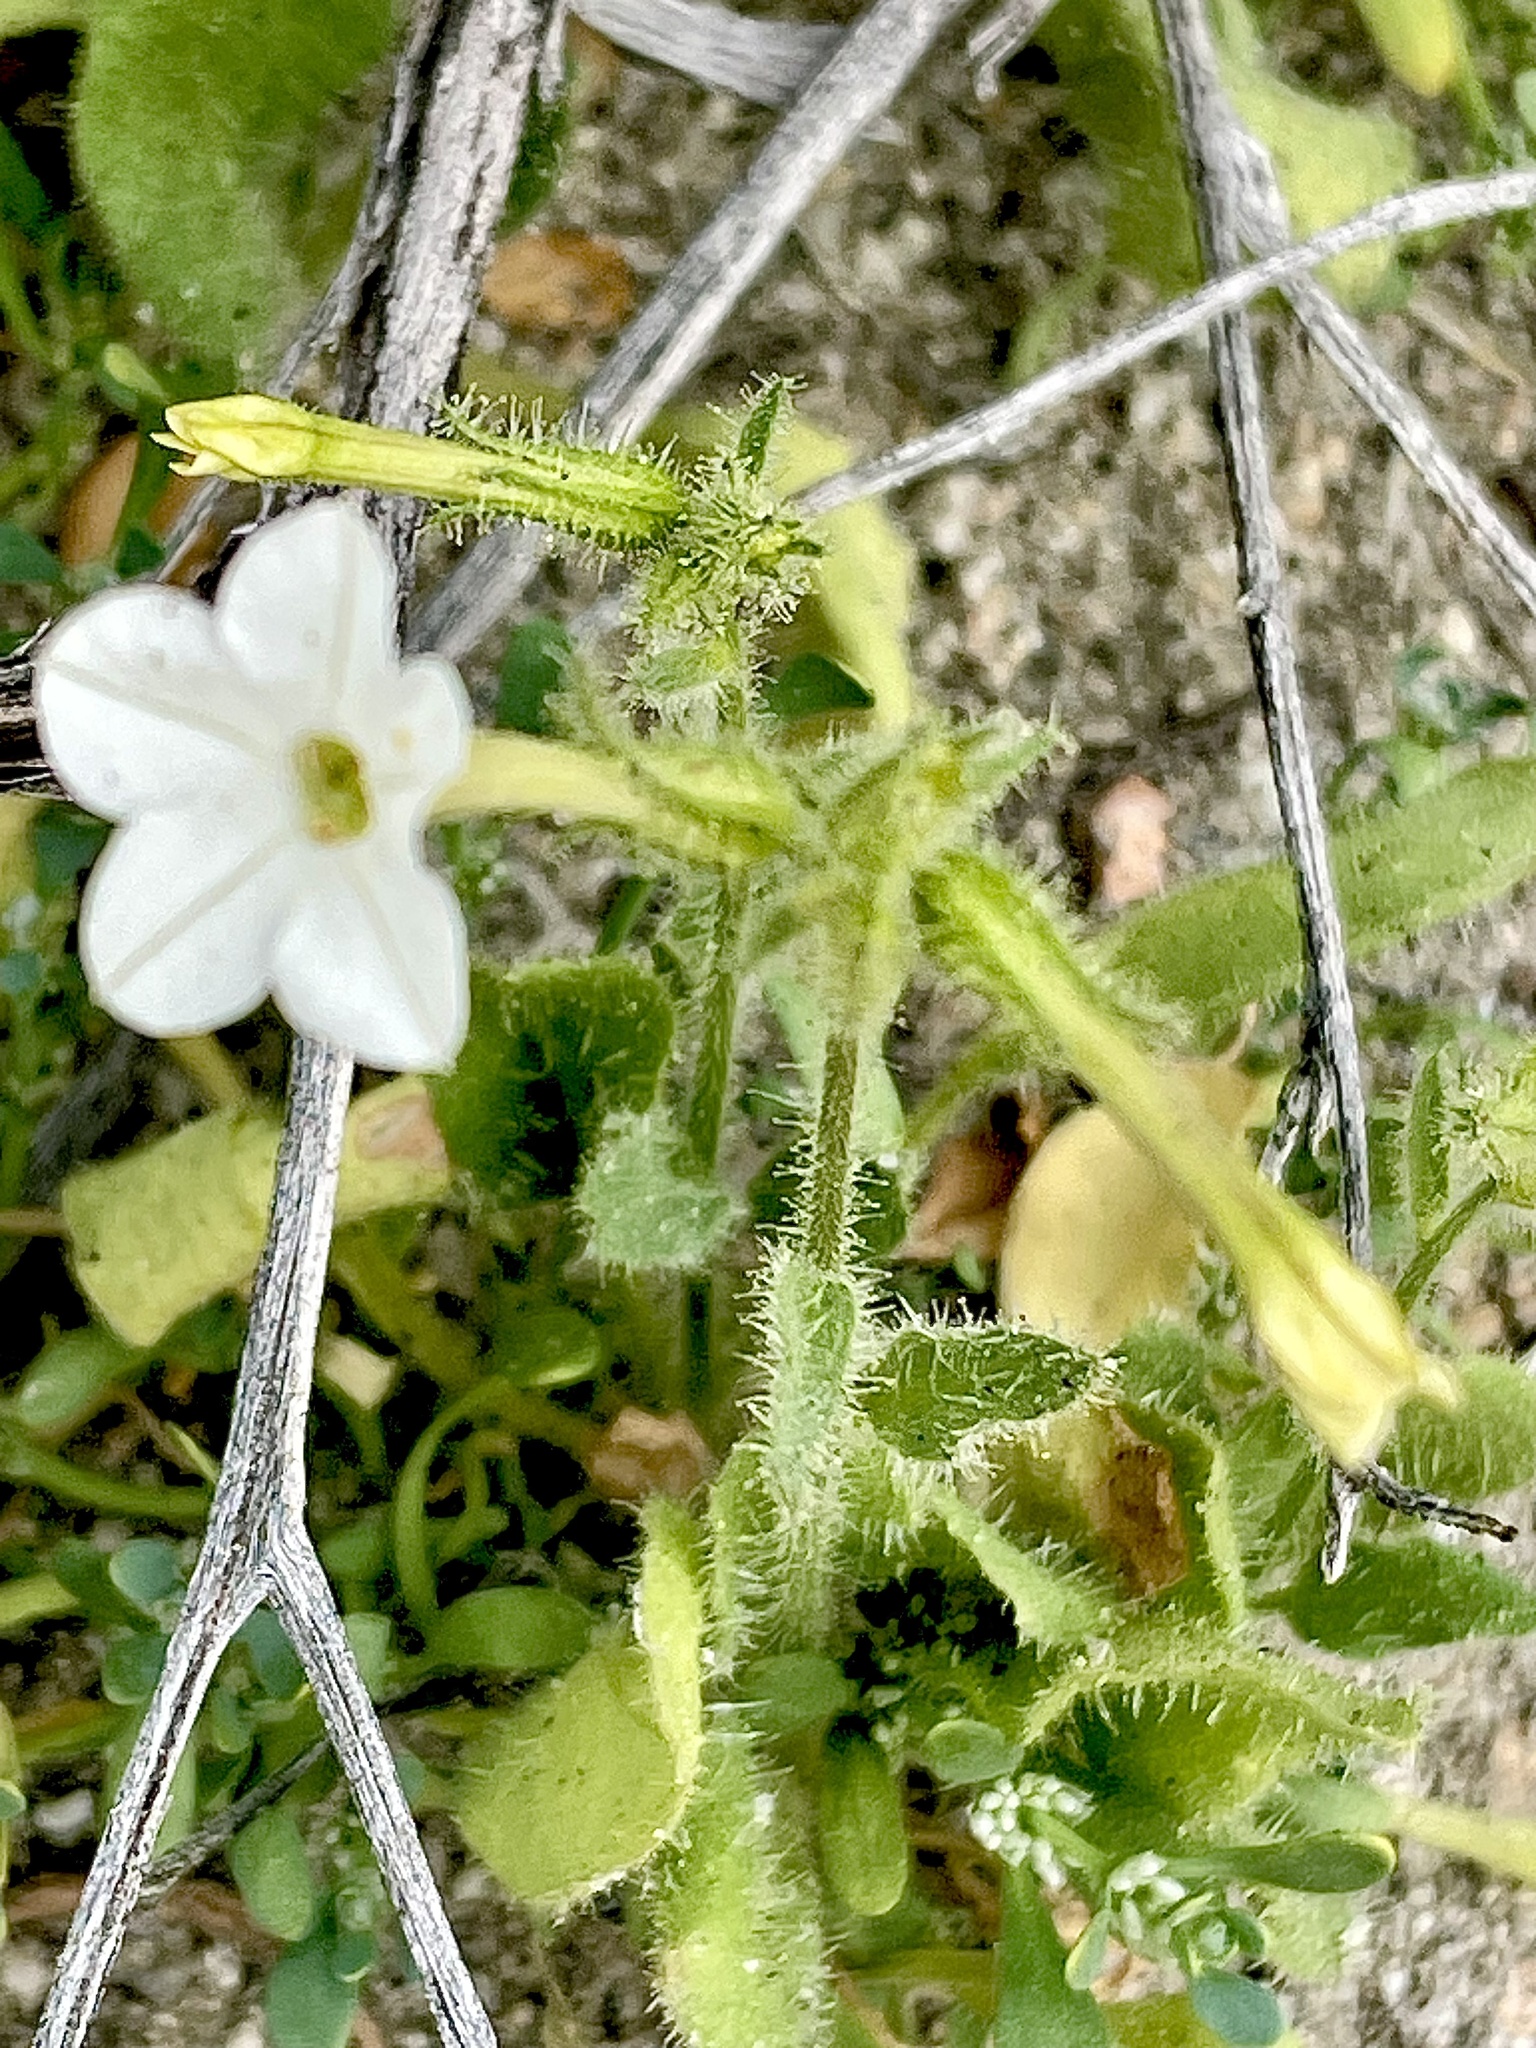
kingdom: Plantae
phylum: Tracheophyta
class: Magnoliopsida
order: Solanales
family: Solanaceae
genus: Nicotiana
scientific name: Nicotiana clevelandii
